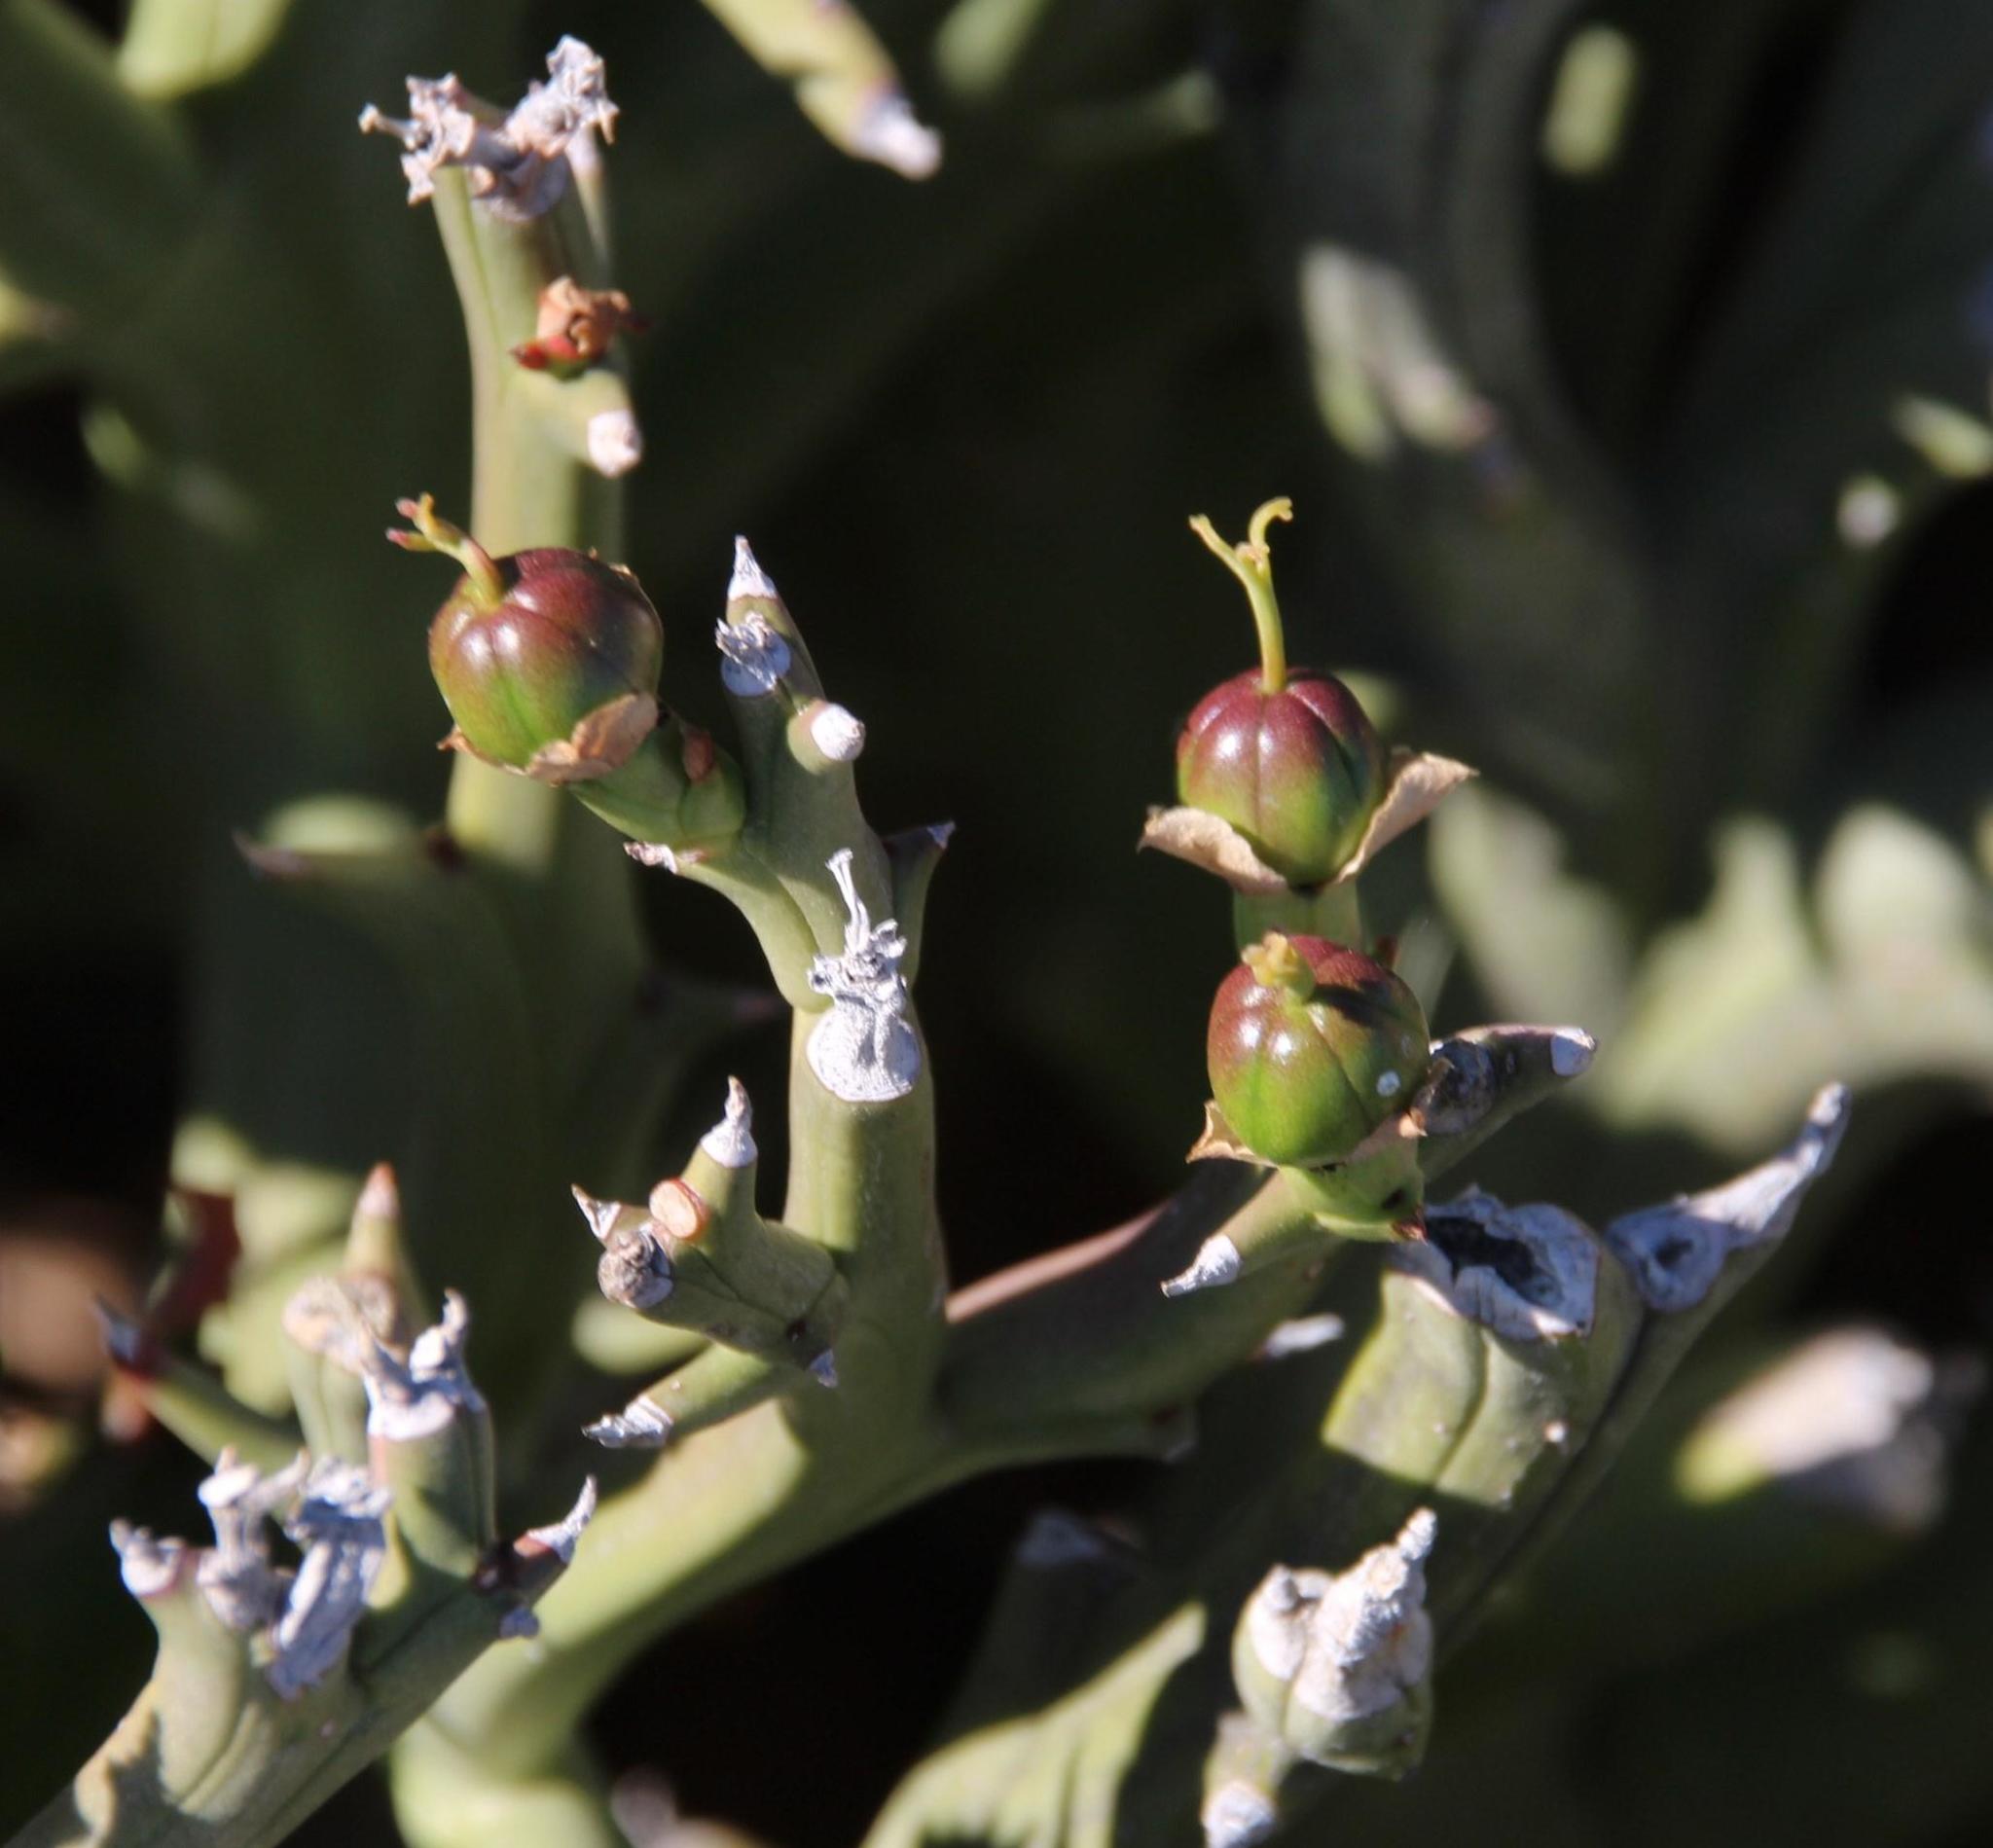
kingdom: Plantae
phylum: Tracheophyta
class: Magnoliopsida
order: Malpighiales
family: Euphorbiaceae
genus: Euphorbia
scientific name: Euphorbia hamata
